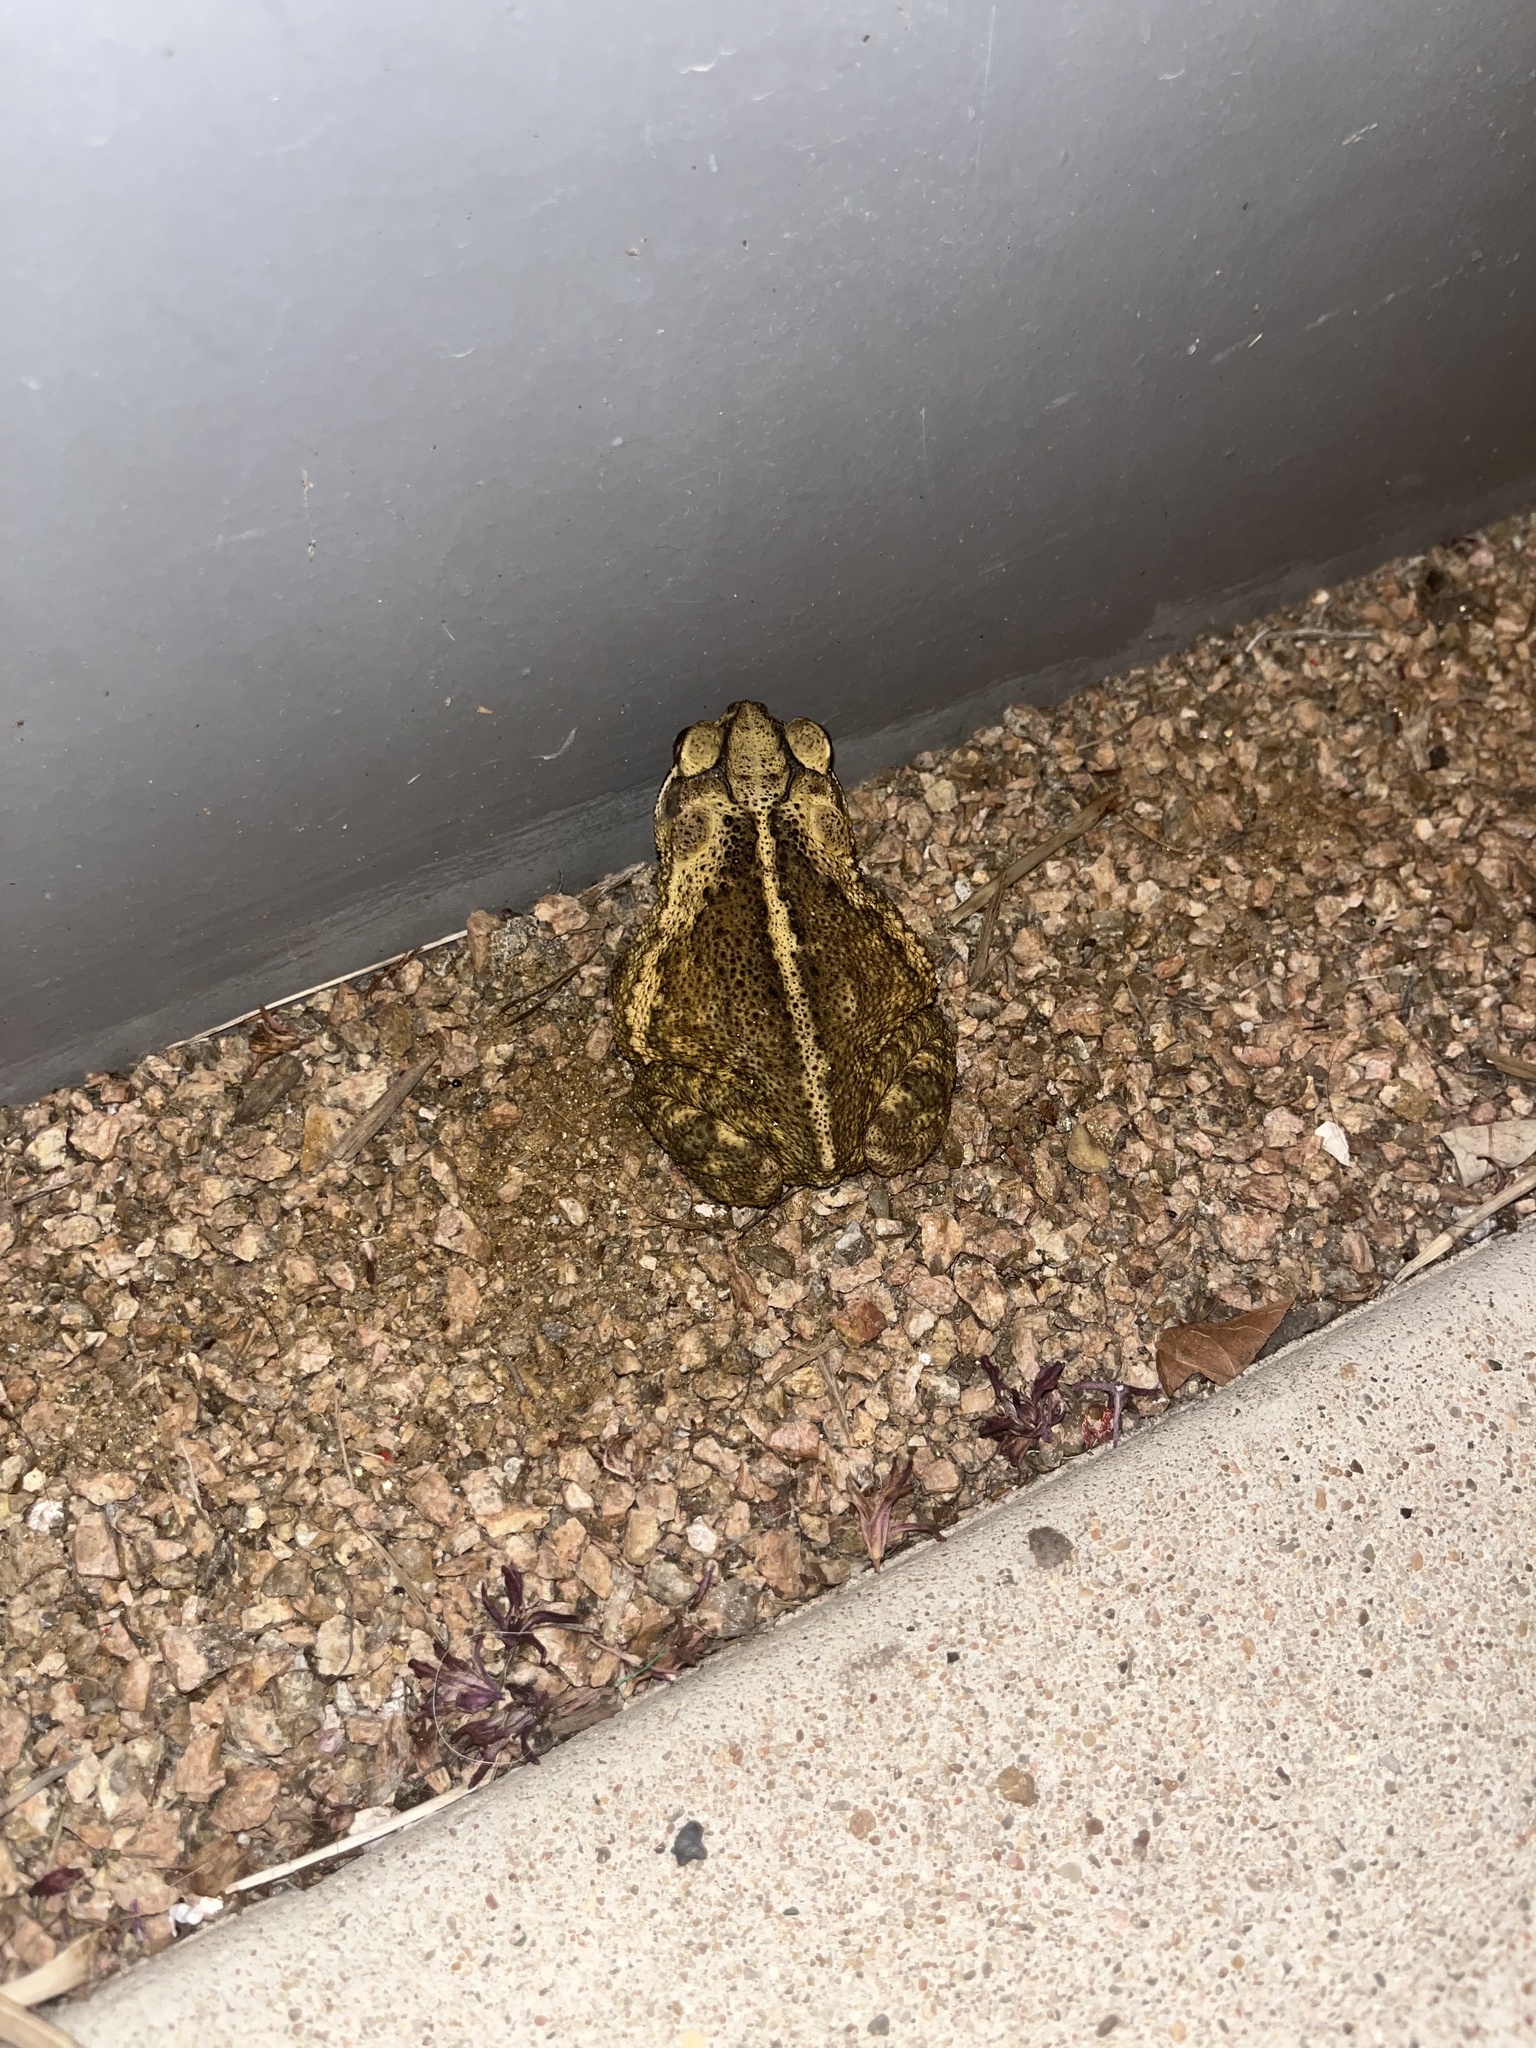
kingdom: Animalia
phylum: Chordata
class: Amphibia
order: Anura
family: Bufonidae
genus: Incilius
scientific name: Incilius nebulifer
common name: Gulf coast toad
